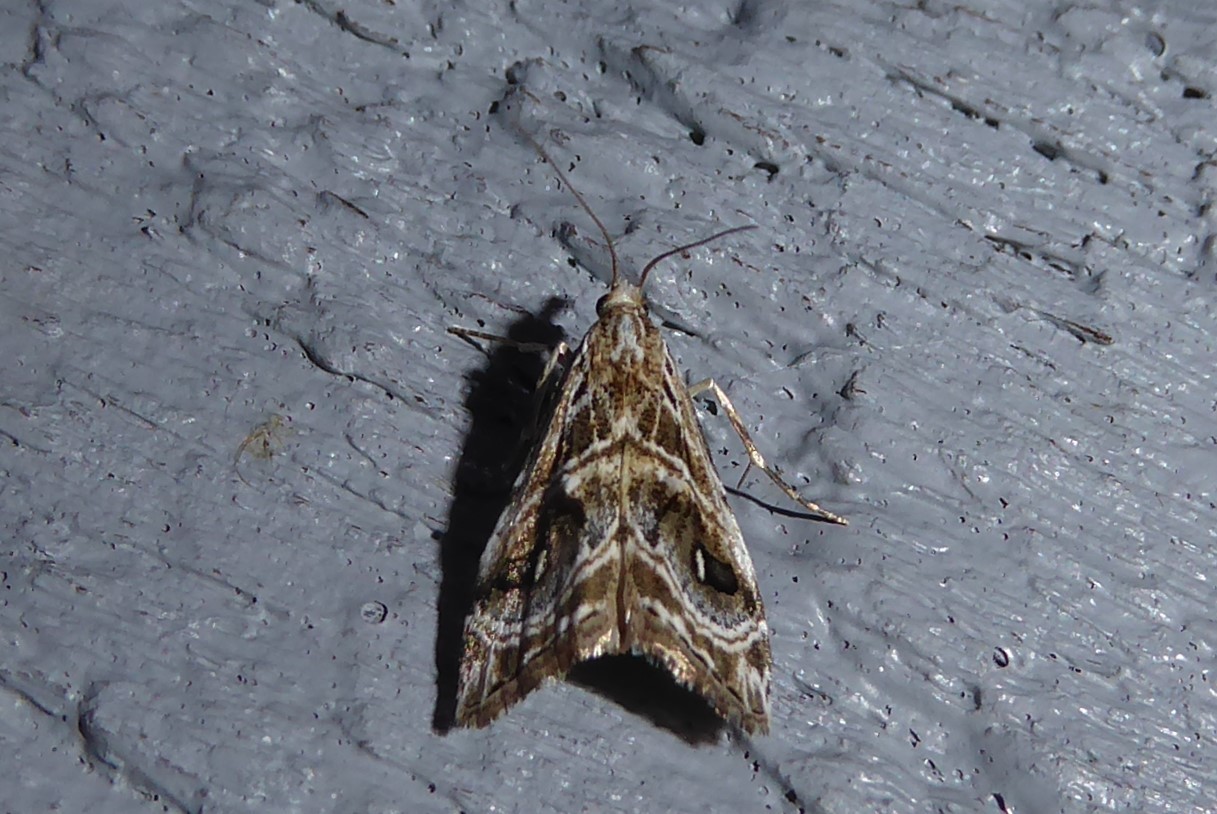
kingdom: Animalia
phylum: Arthropoda
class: Insecta
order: Lepidoptera
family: Crambidae
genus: Gadira
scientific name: Gadira acerella
